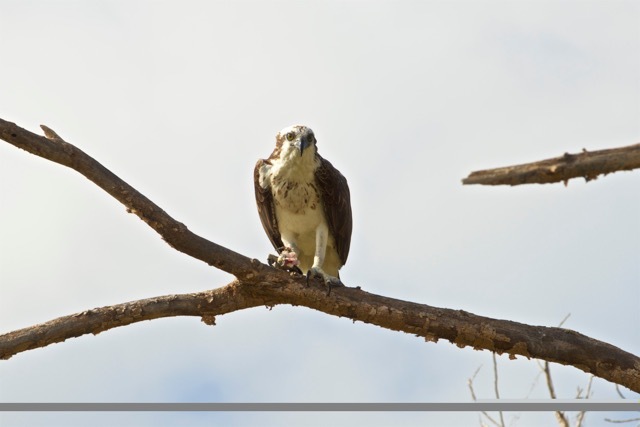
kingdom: Animalia
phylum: Chordata
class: Aves
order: Accipitriformes
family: Pandionidae
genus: Pandion
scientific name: Pandion haliaetus
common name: Osprey
